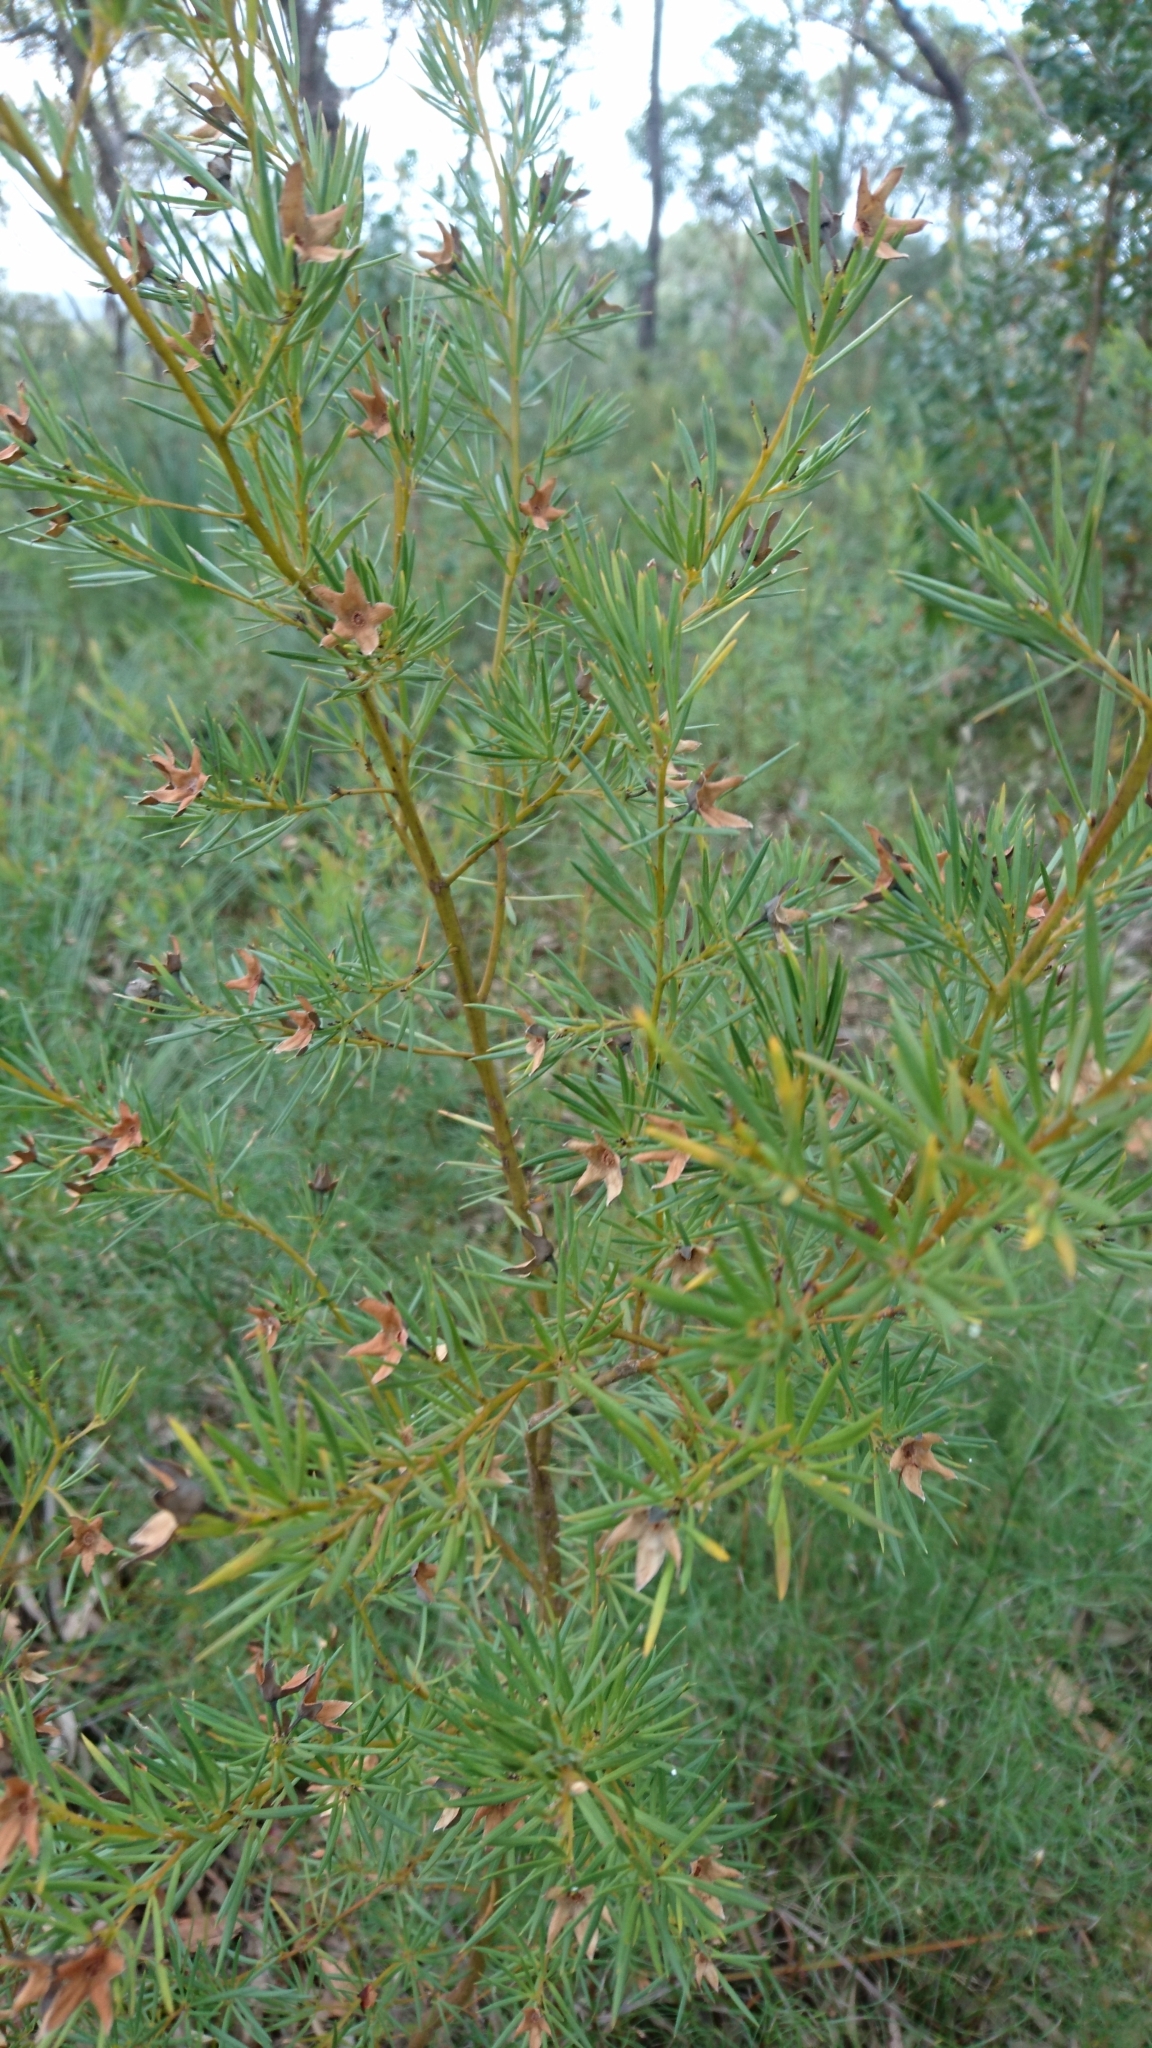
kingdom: Plantae
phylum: Tracheophyta
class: Magnoliopsida
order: Fabales
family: Fabaceae
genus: Gompholobium
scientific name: Gompholobium grandiflorum
